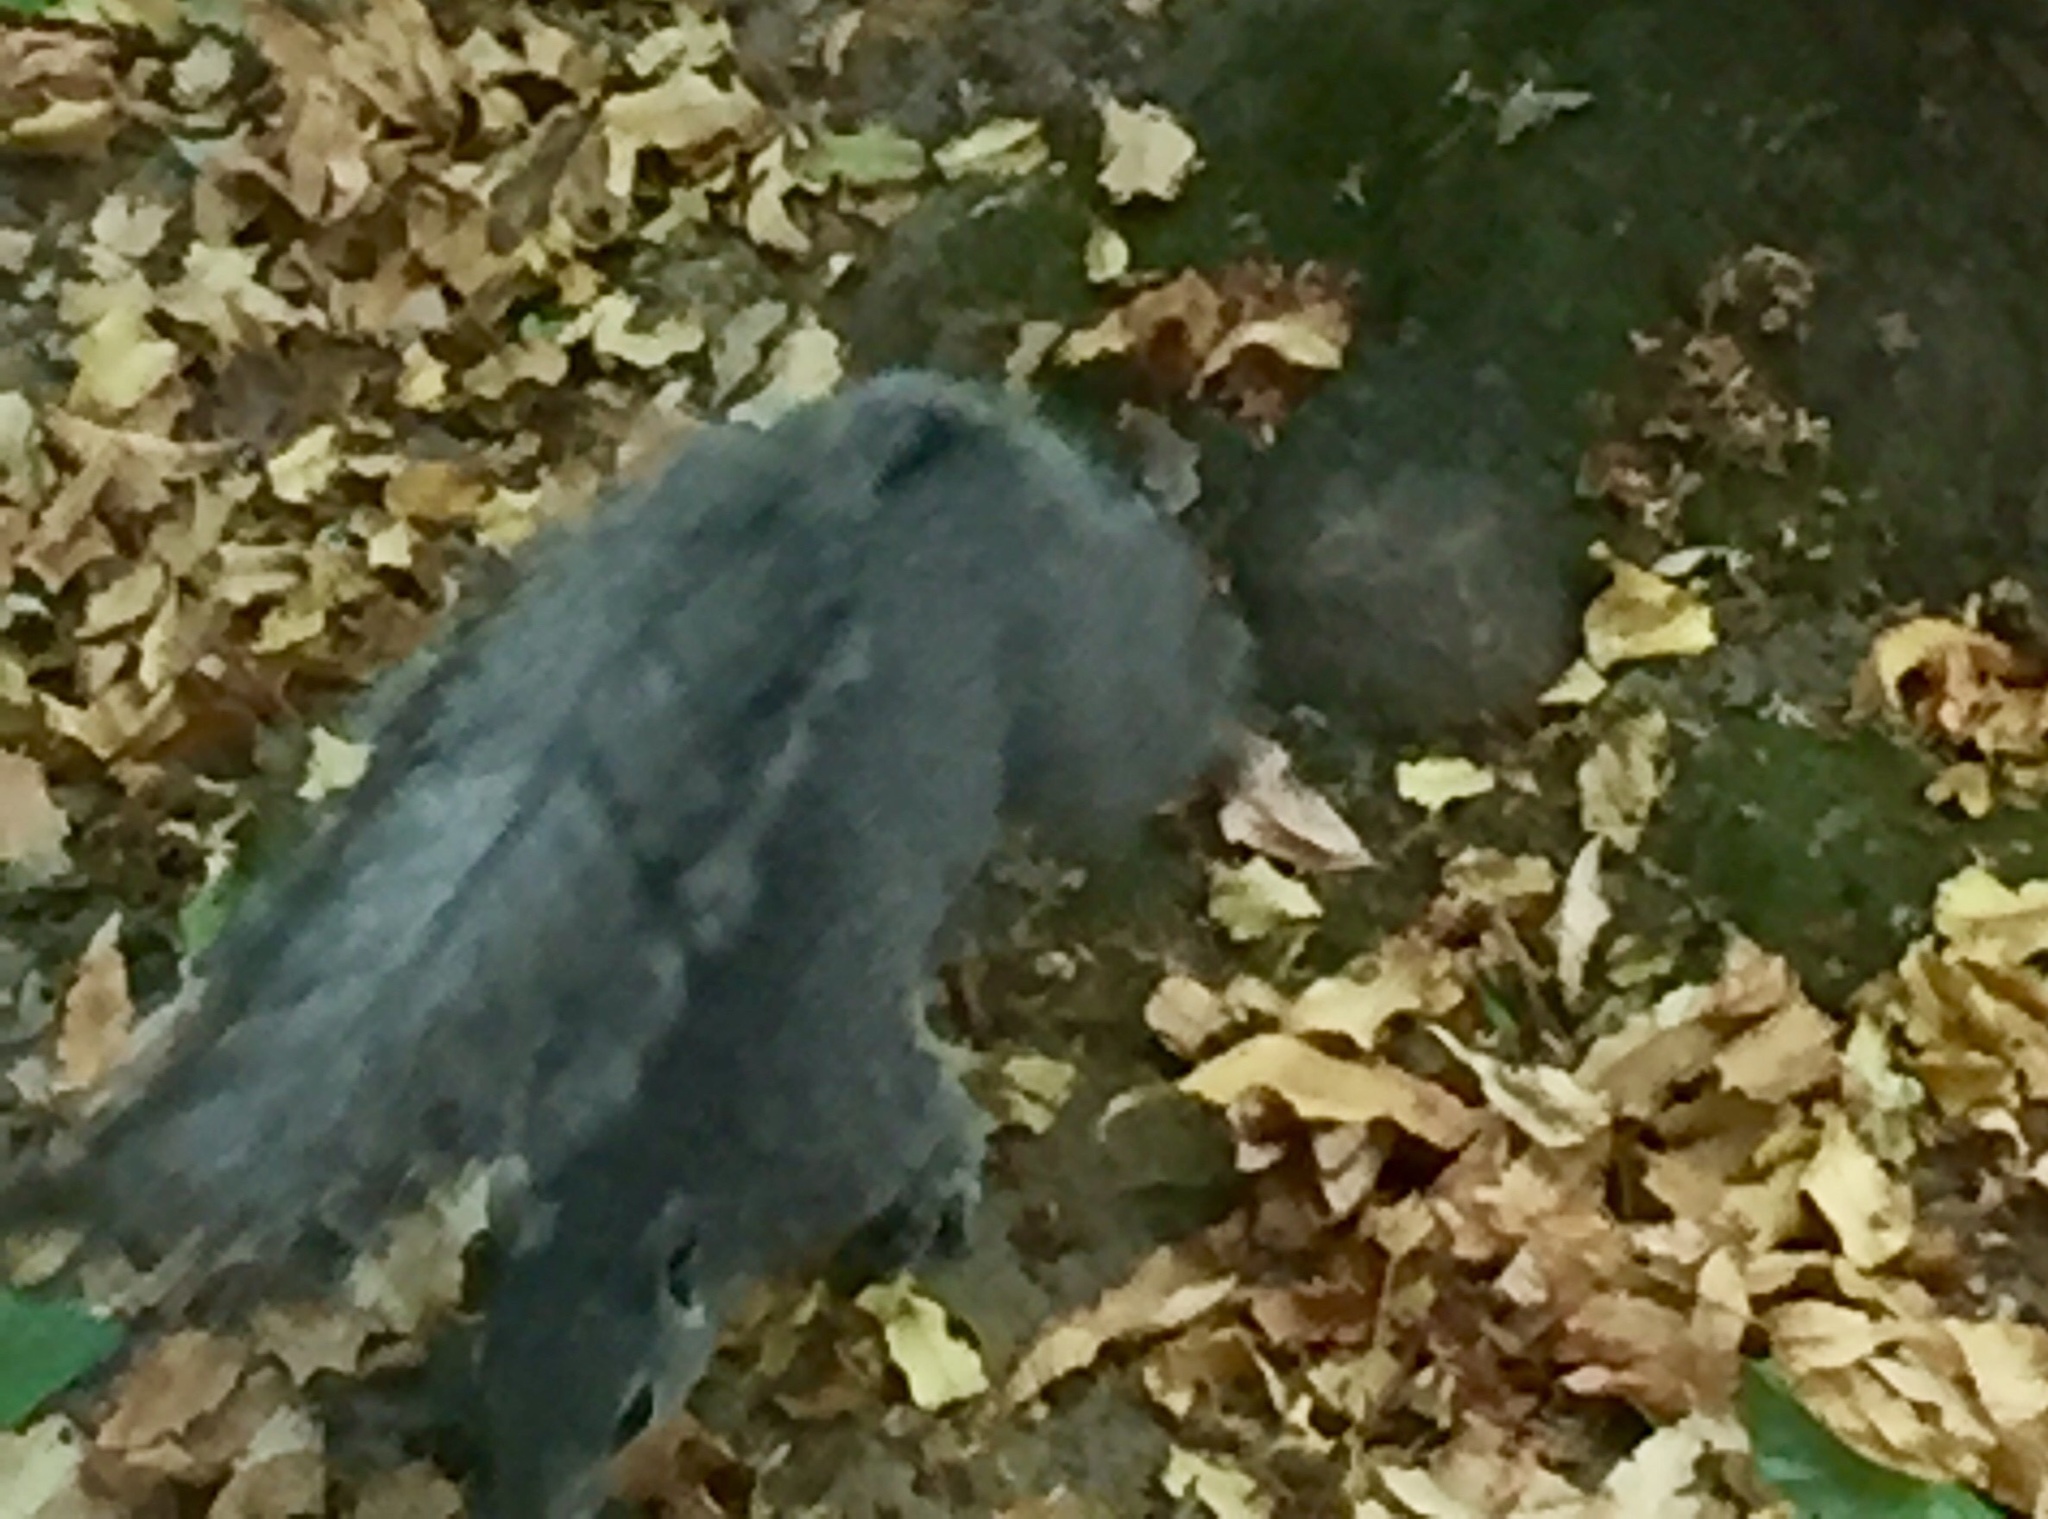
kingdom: Animalia
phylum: Chordata
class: Mammalia
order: Rodentia
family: Sciuridae
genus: Sciurus
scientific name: Sciurus griseus
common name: Western gray squirrel
